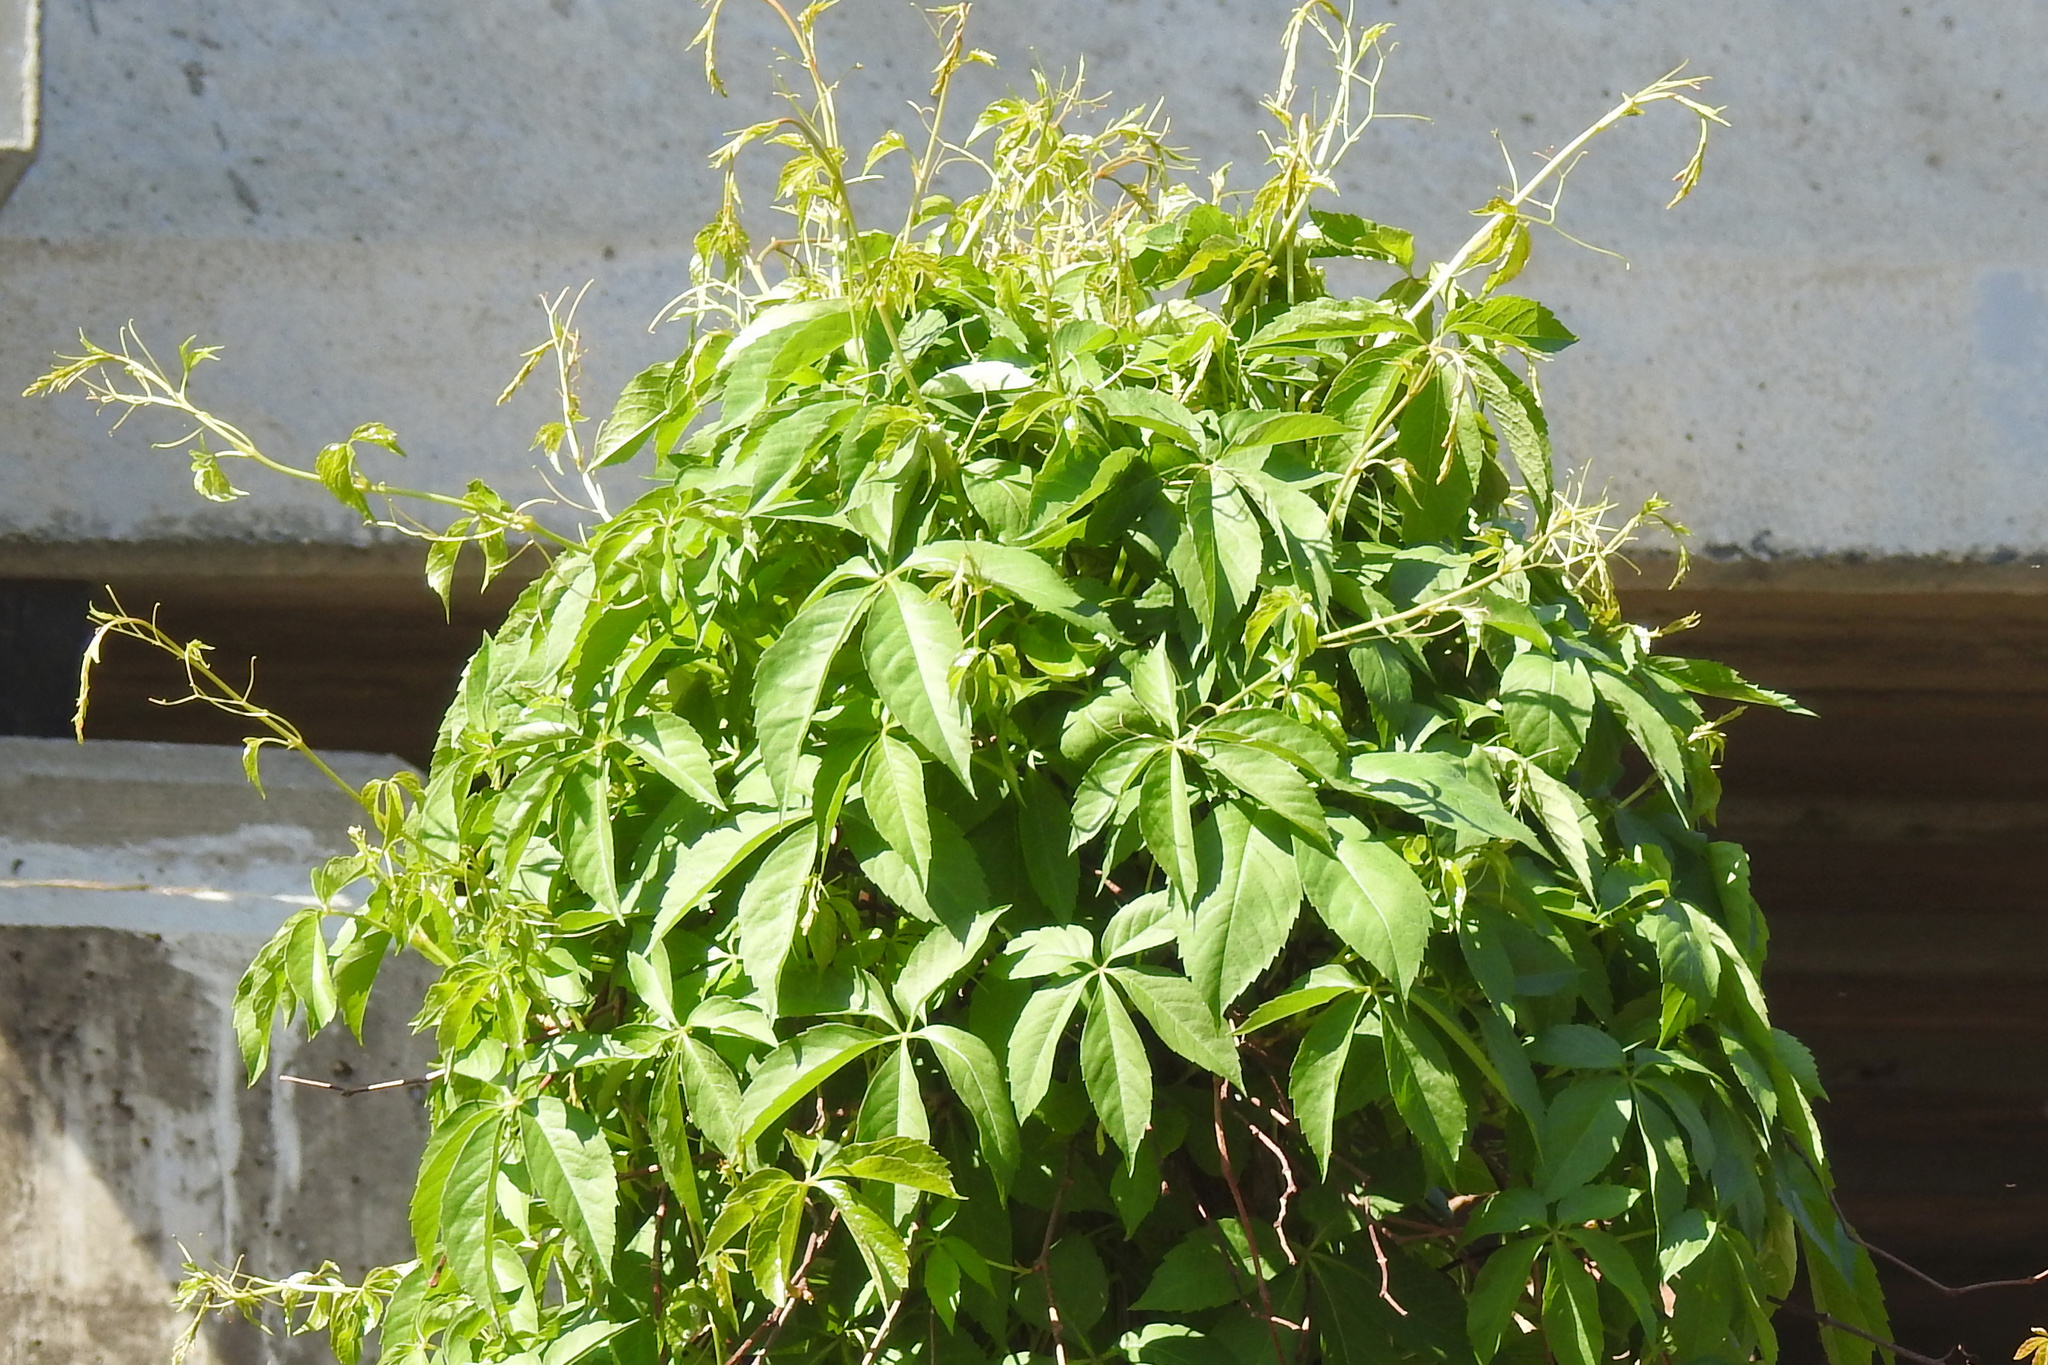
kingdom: Plantae
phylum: Tracheophyta
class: Magnoliopsida
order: Vitales
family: Vitaceae
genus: Parthenocissus
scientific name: Parthenocissus quinquefolia
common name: Virginia-creeper
